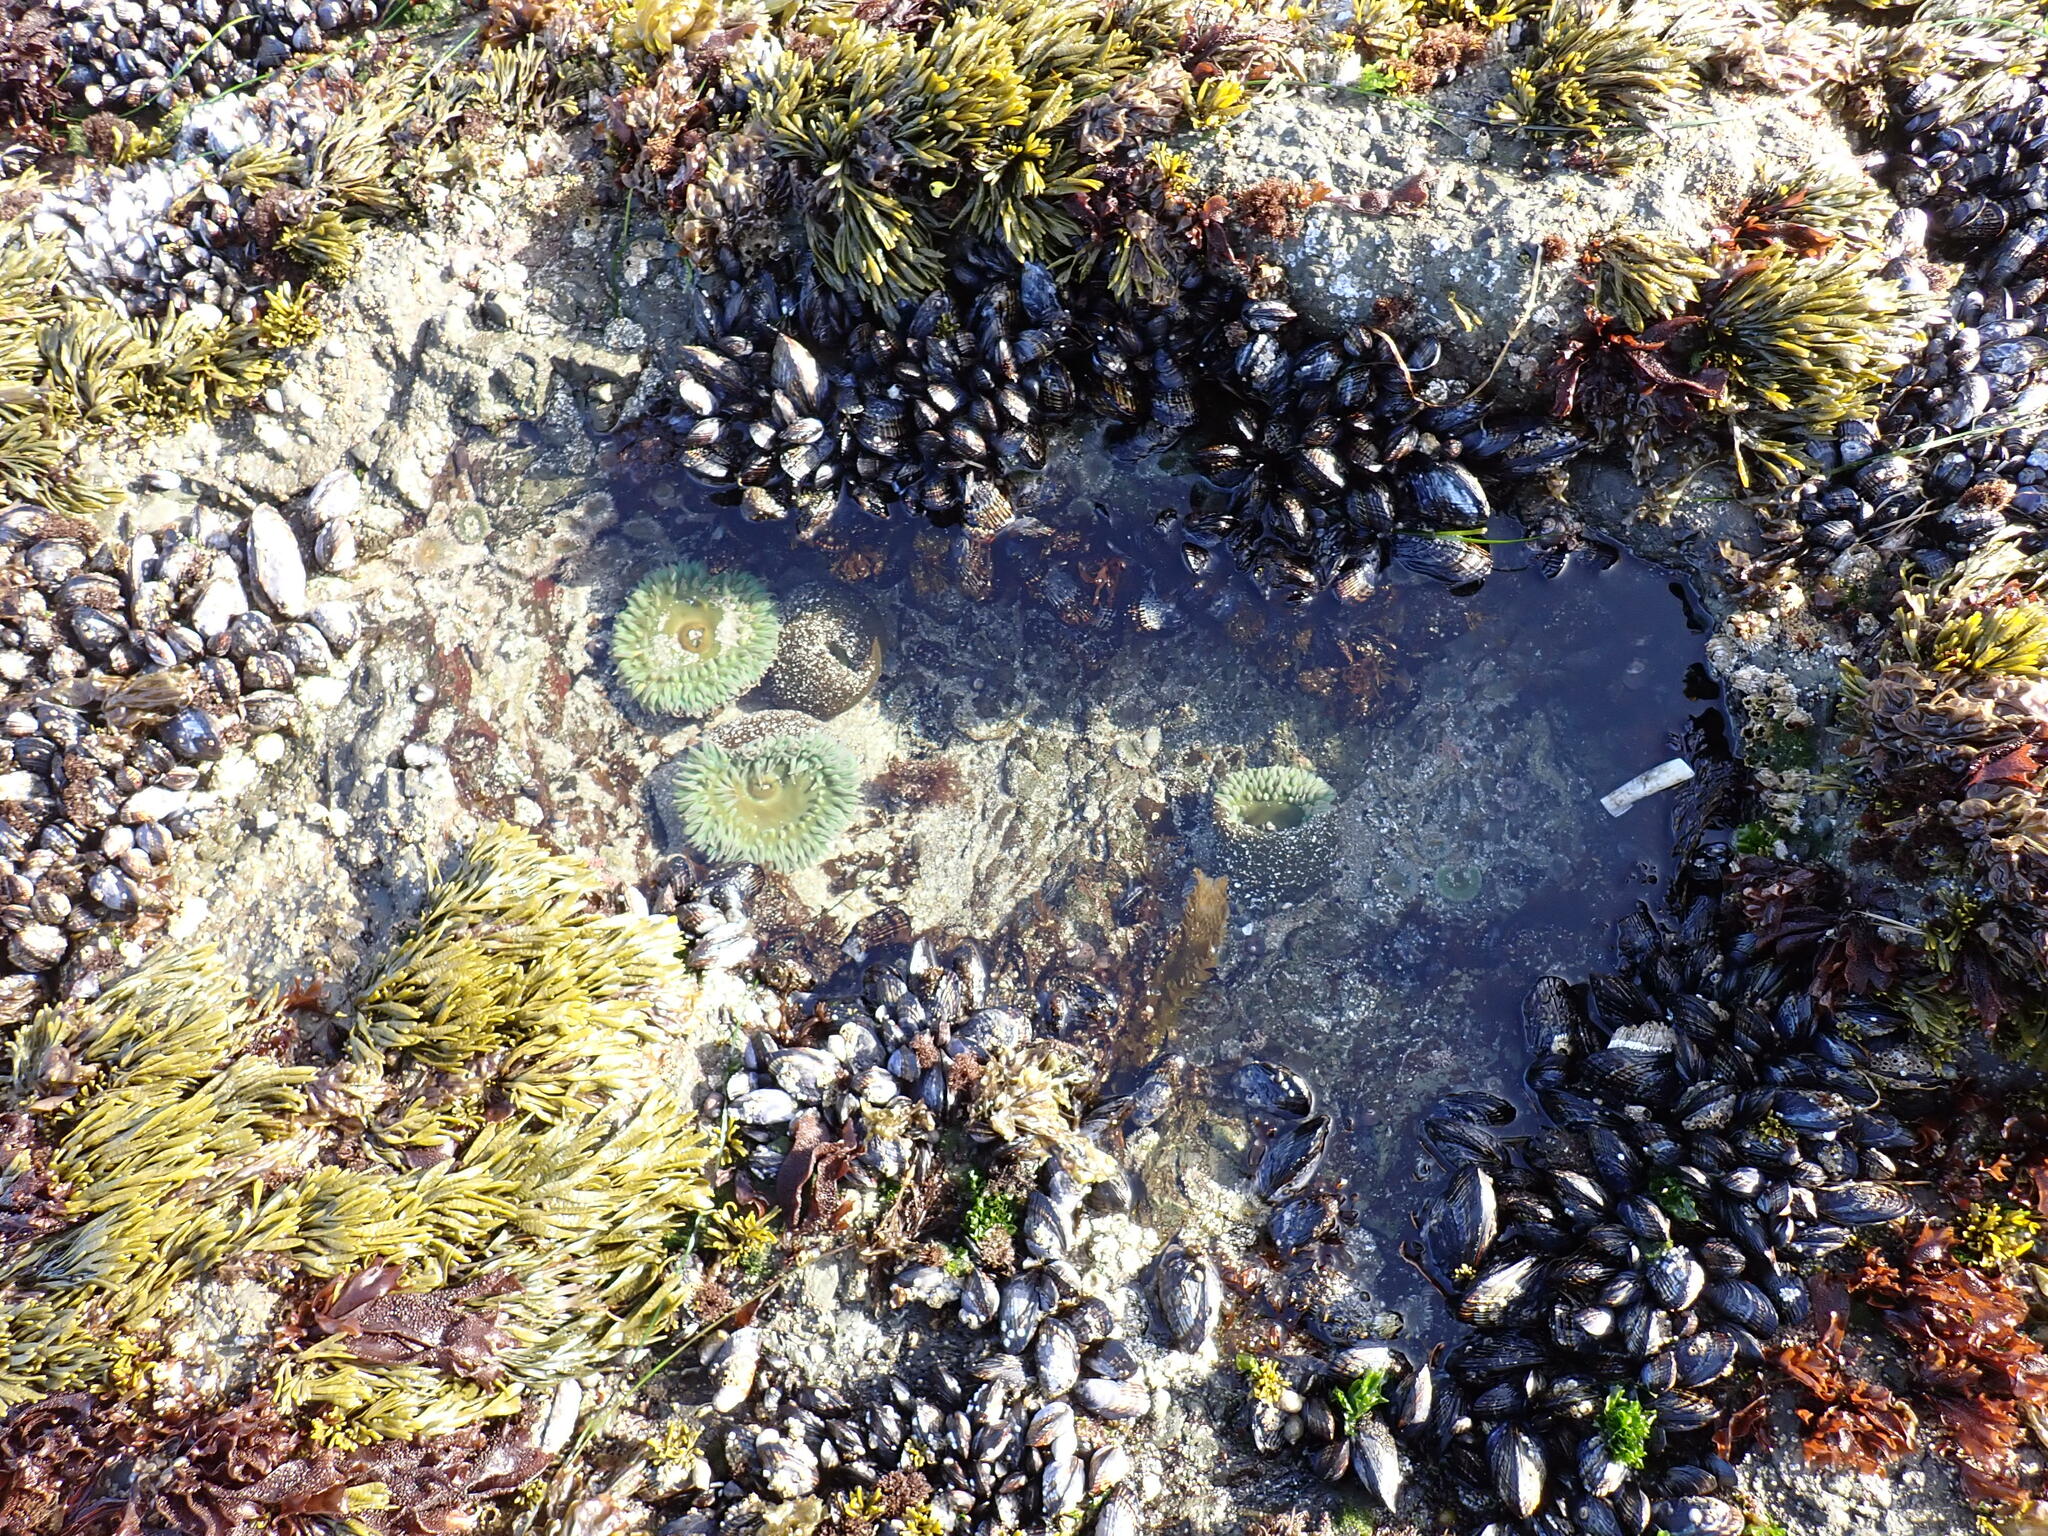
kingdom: Animalia
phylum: Cnidaria
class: Anthozoa
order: Actiniaria
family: Actiniidae
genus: Anthopleura
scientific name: Anthopleura xanthogrammica
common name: Giant green anemone
